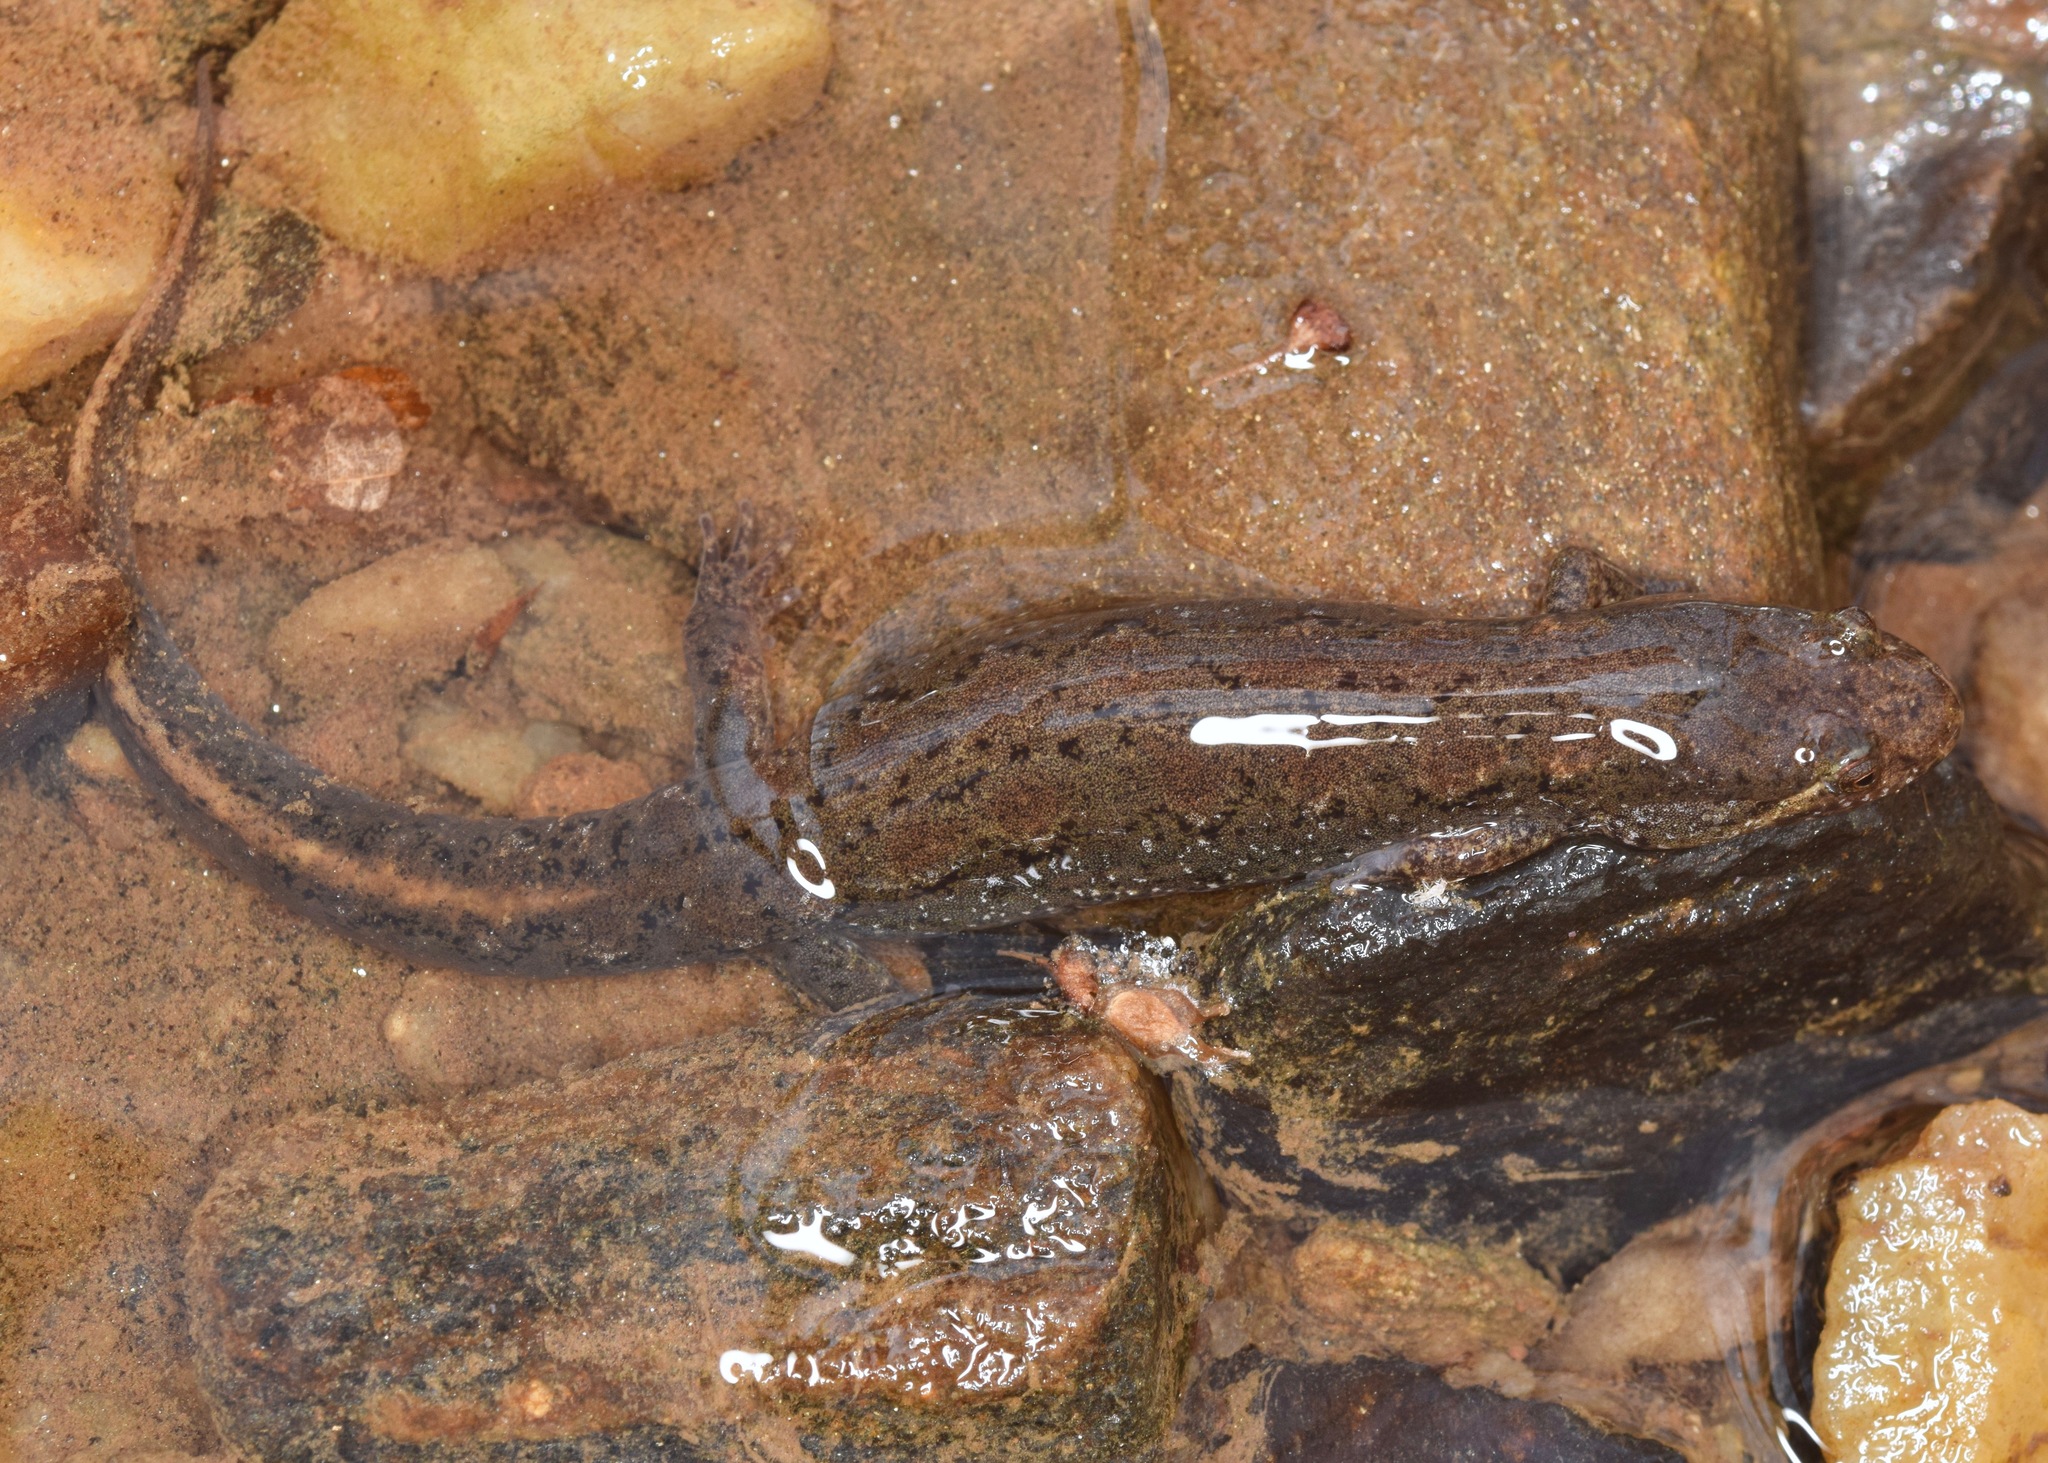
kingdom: Animalia
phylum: Chordata
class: Amphibia
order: Caudata
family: Plethodontidae
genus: Desmognathus
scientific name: Desmognathus conanti
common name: Spotted dusky salamander
